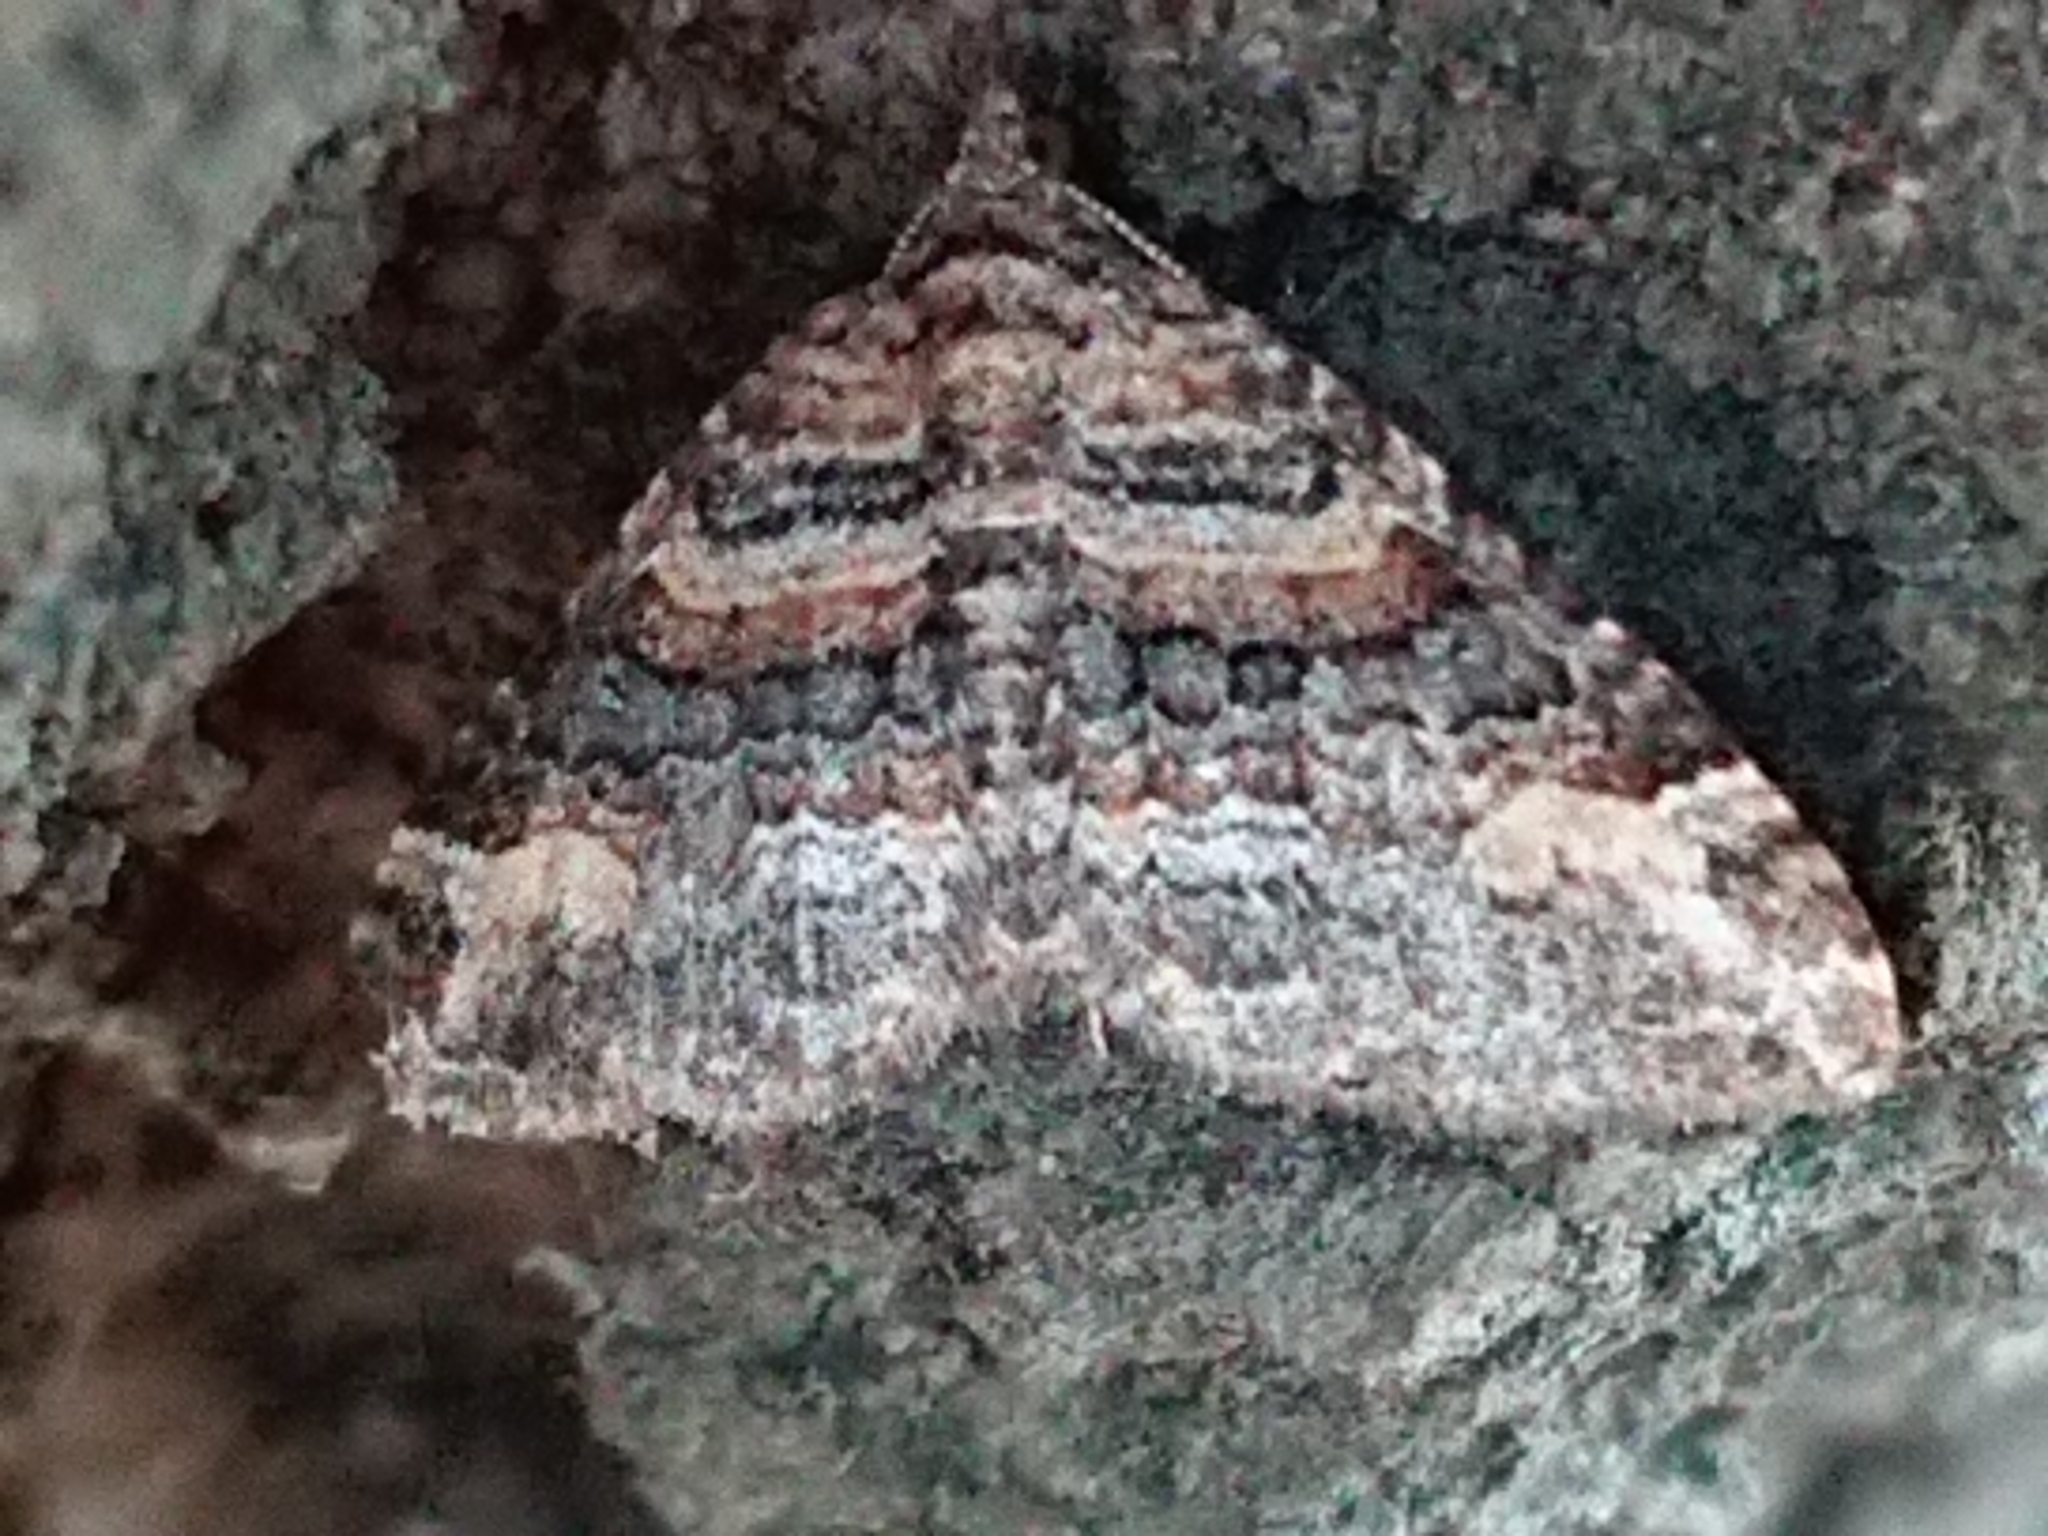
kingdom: Animalia
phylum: Arthropoda
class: Insecta
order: Lepidoptera
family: Geometridae
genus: Epyaxa
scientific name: Epyaxa lucidata
